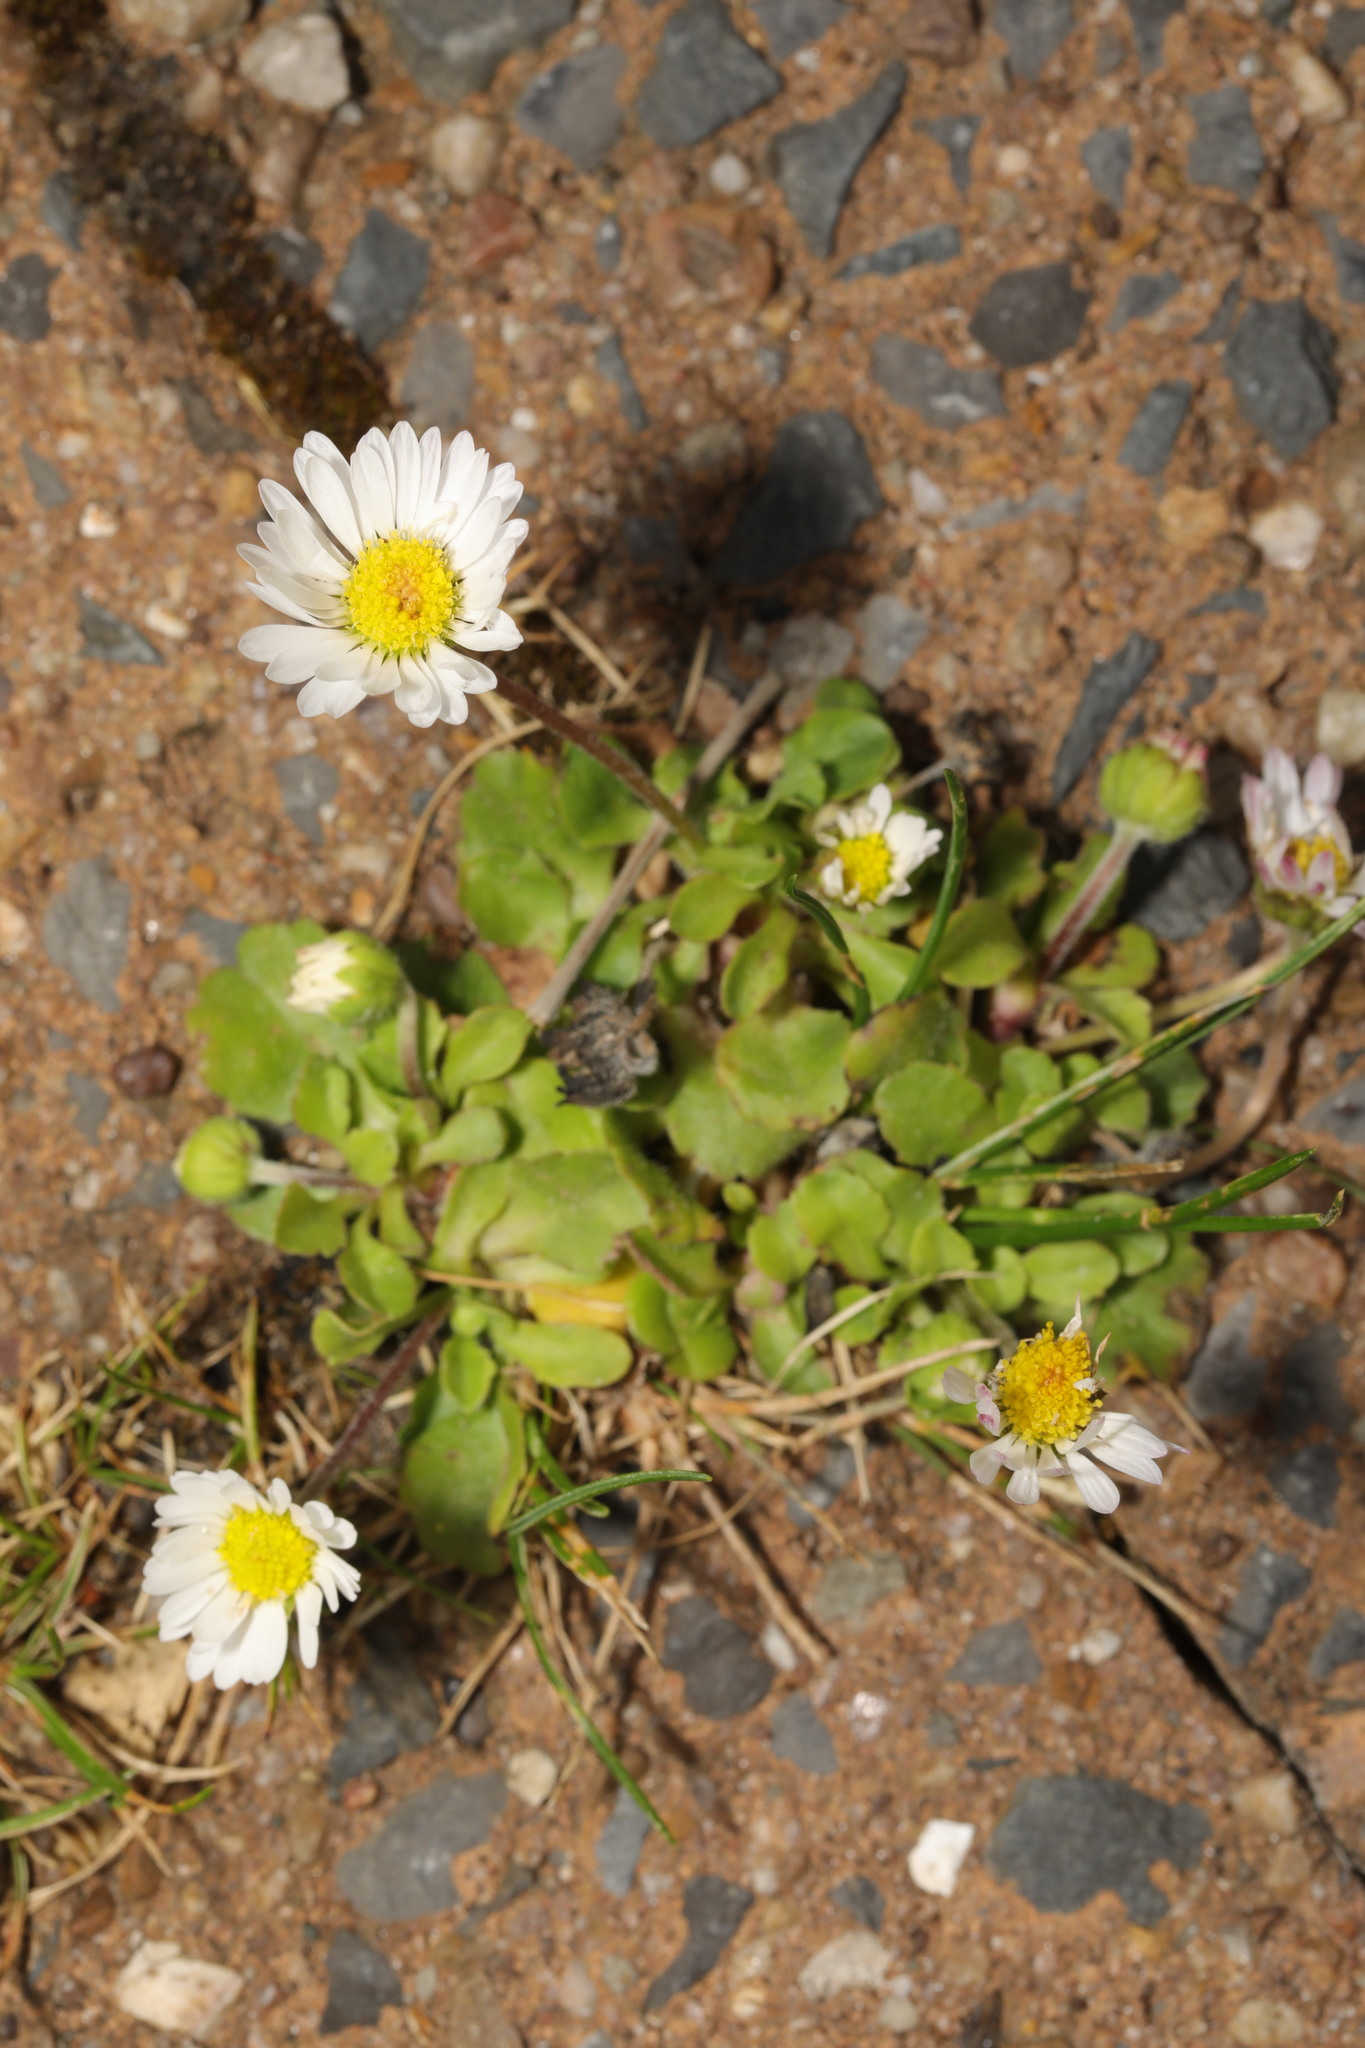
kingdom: Plantae
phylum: Tracheophyta
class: Magnoliopsida
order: Asterales
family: Asteraceae
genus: Bellis
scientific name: Bellis perennis
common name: Lawndaisy
